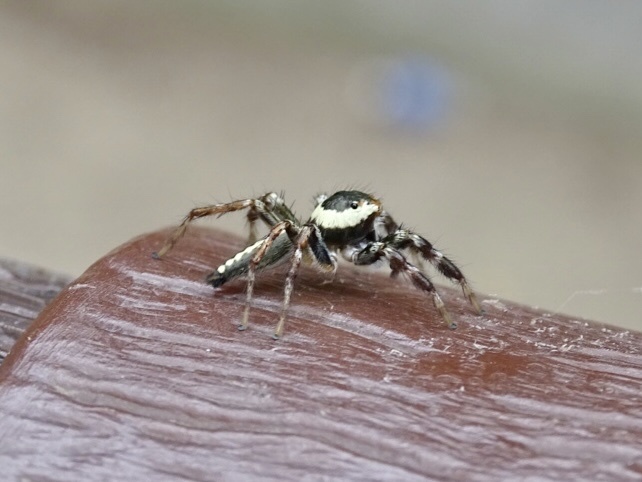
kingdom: Animalia
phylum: Arthropoda
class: Arachnida
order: Araneae
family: Salticidae
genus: Telamonia
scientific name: Telamonia caprina
